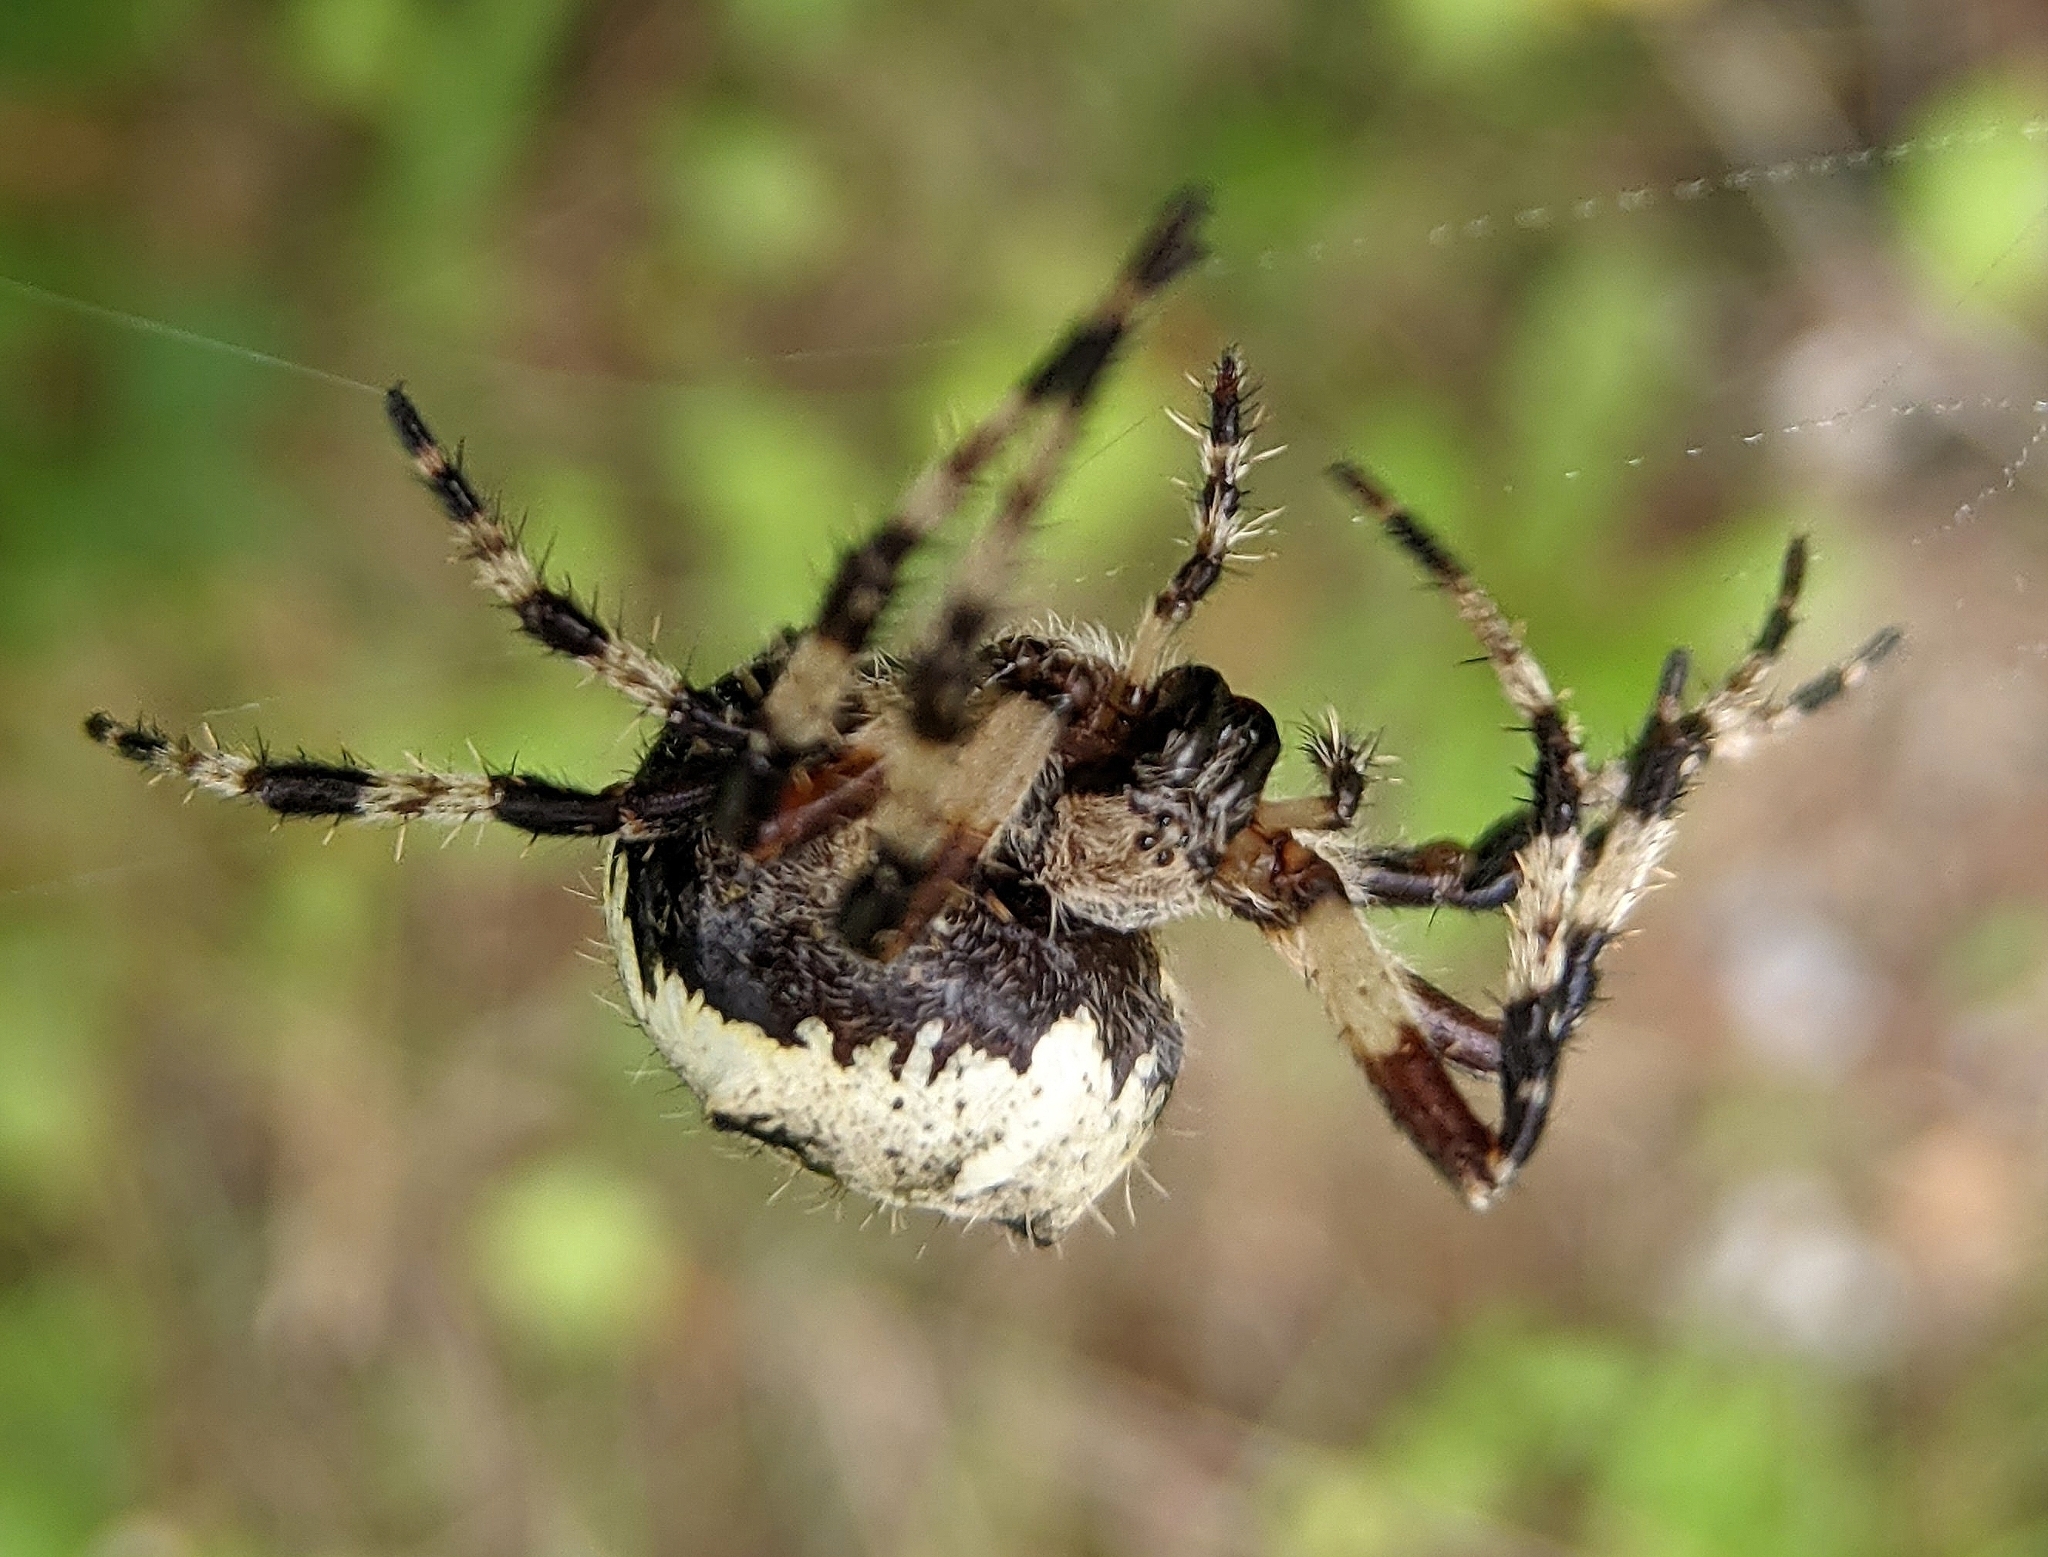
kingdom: Animalia
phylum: Arthropoda
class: Arachnida
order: Araneae
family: Araneidae
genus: Araneus
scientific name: Araneus nordmanni
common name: Nordmann's orbweaver
